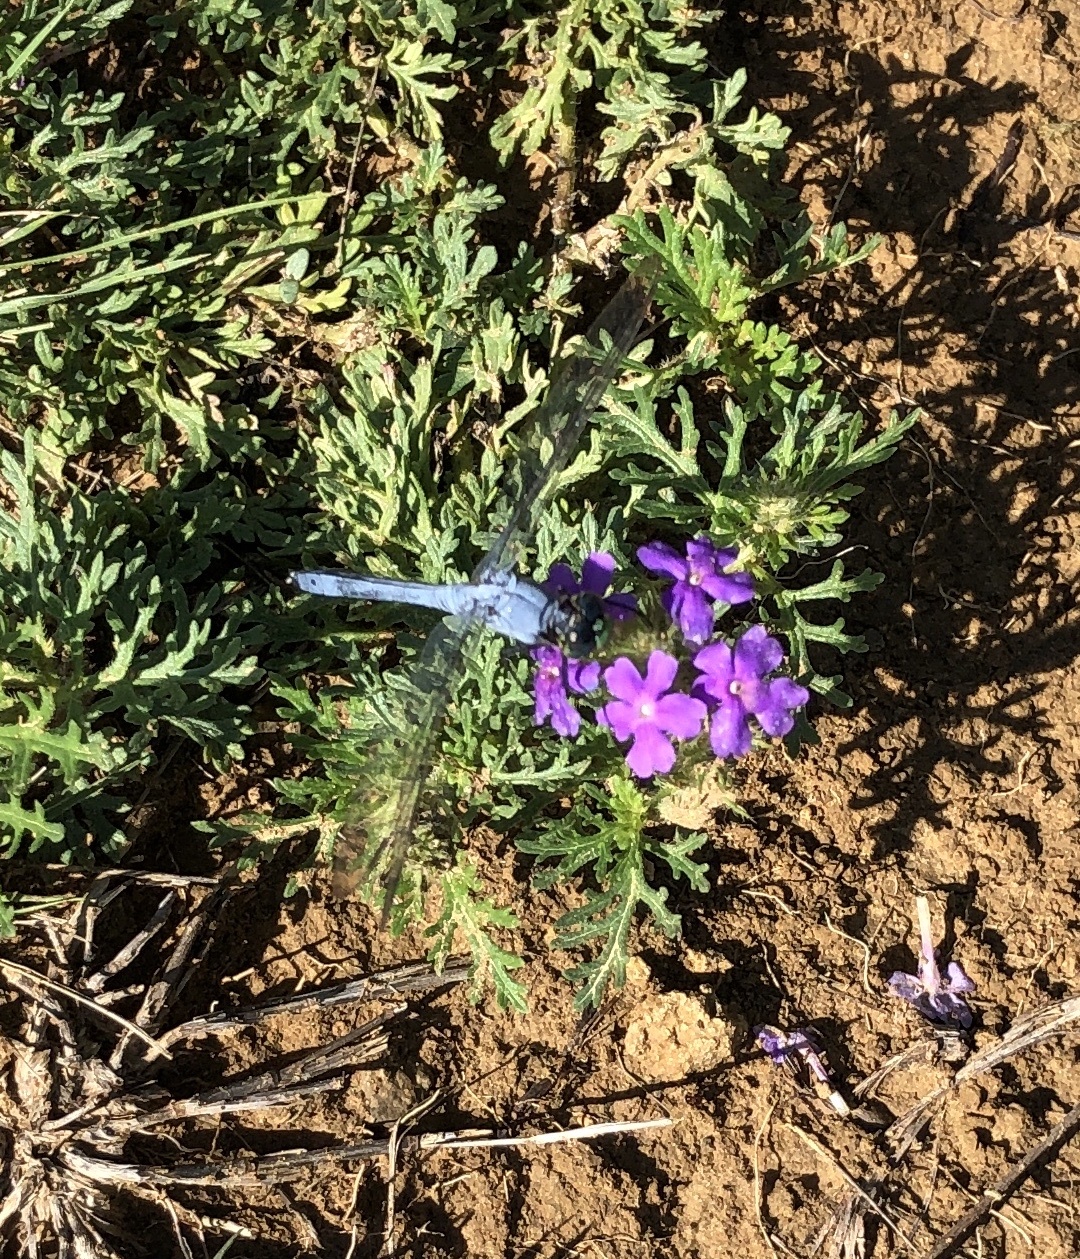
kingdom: Animalia
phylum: Arthropoda
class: Insecta
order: Odonata
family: Libellulidae
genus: Erythemis
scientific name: Erythemis simplicicollis
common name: Eastern pondhawk
